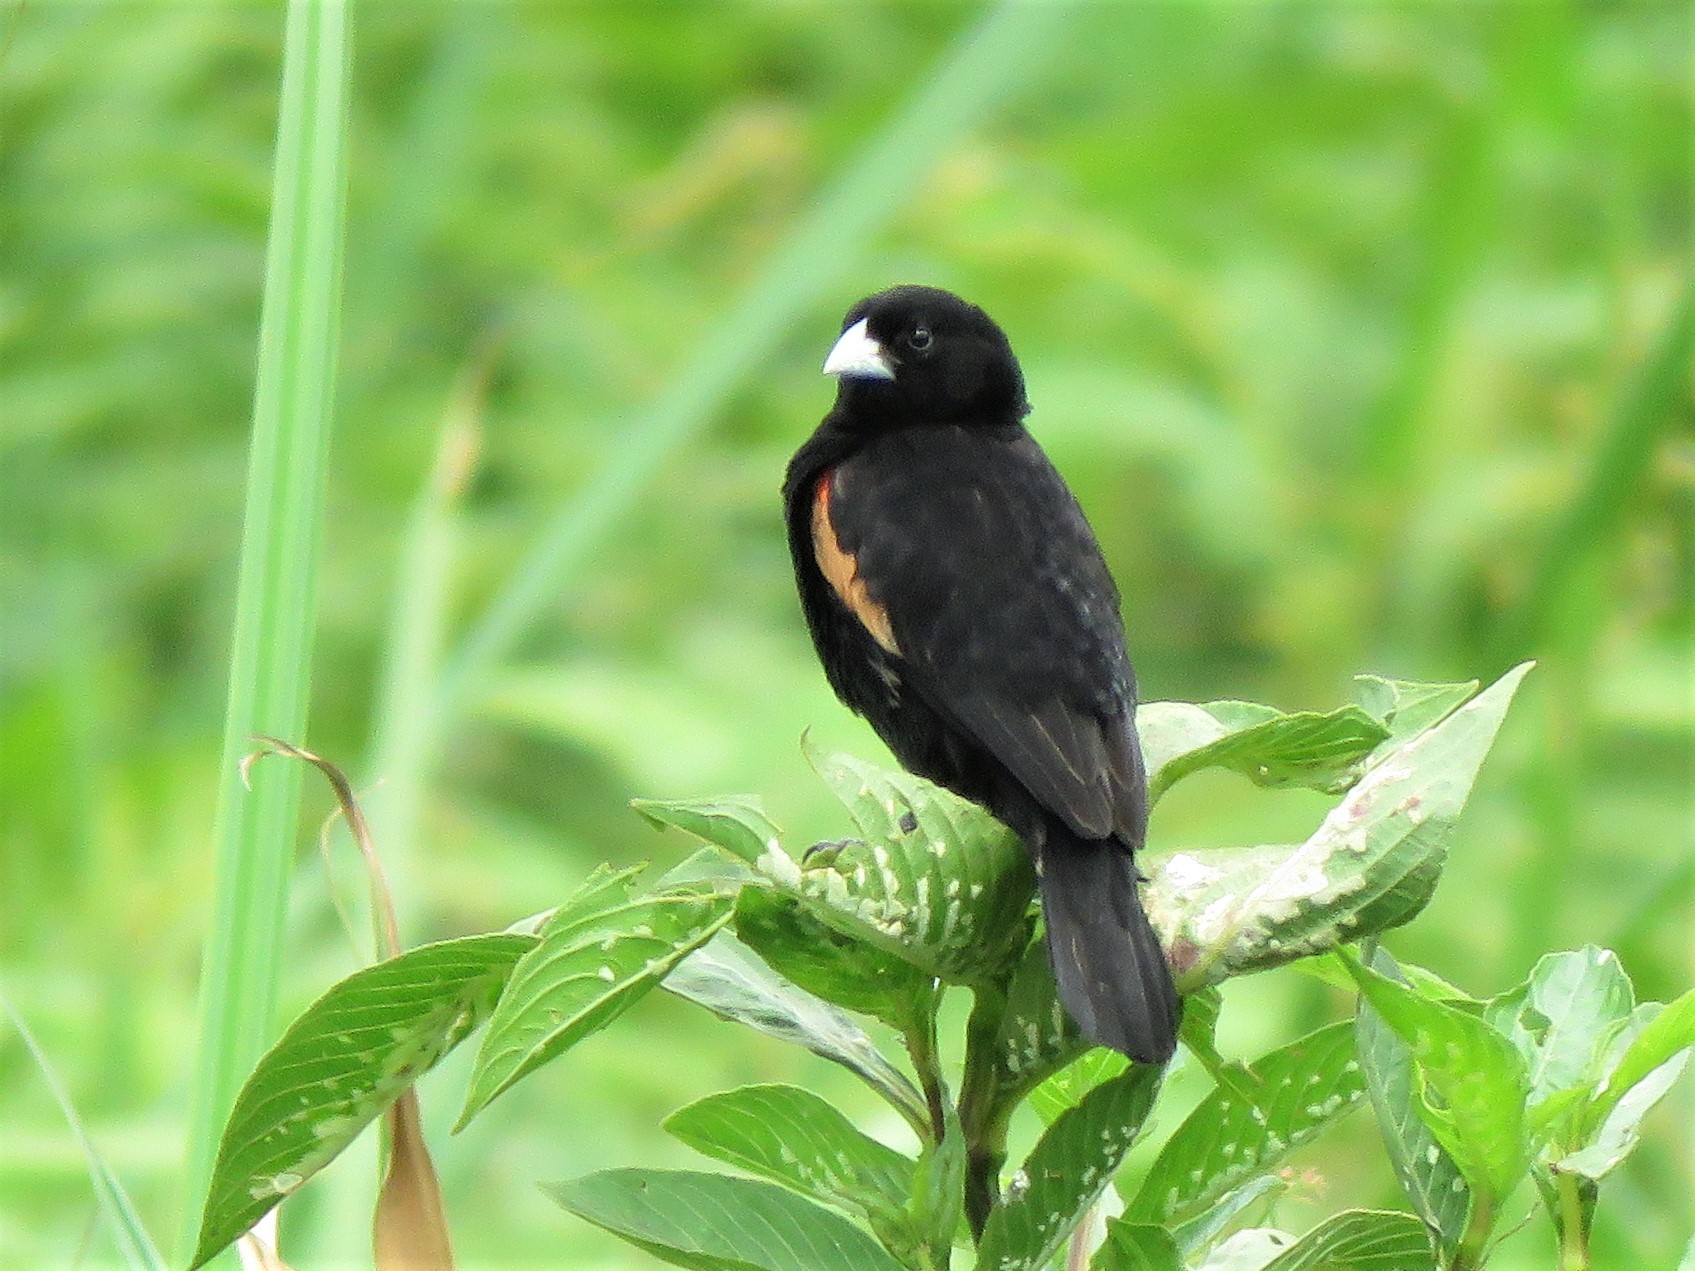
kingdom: Animalia
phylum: Chordata
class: Aves
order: Passeriformes
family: Ploceidae
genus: Euplectes
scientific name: Euplectes axillaris
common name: Fan-tailed widowbird
